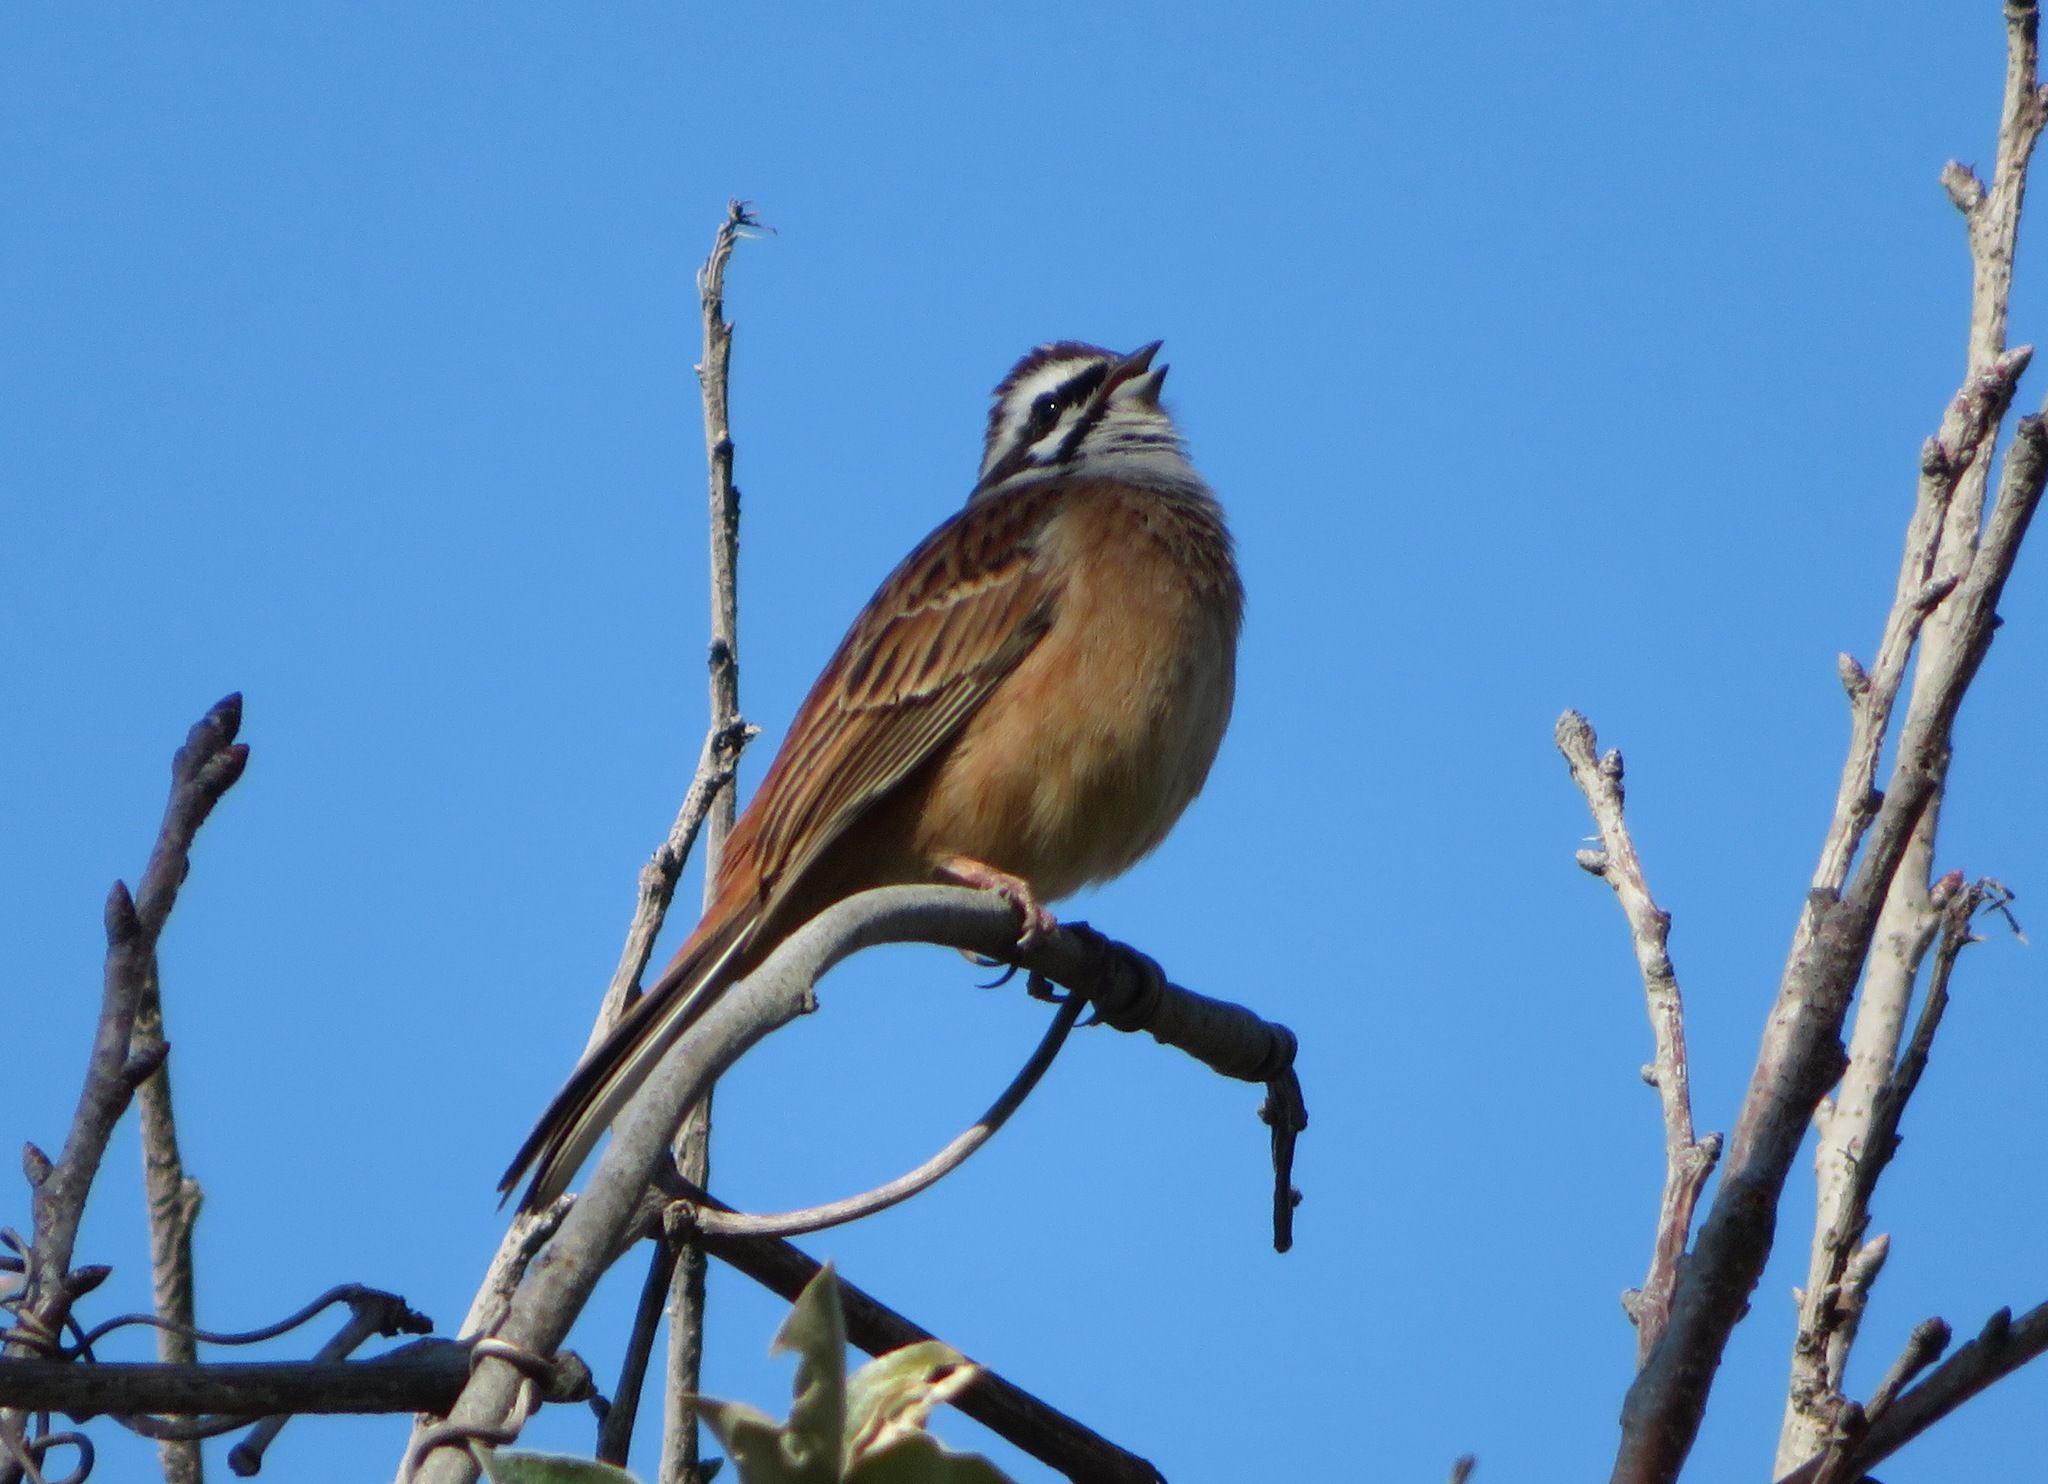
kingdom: Animalia
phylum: Chordata
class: Aves
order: Passeriformes
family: Emberizidae
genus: Emberiza
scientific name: Emberiza cioides
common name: Meadow bunting
